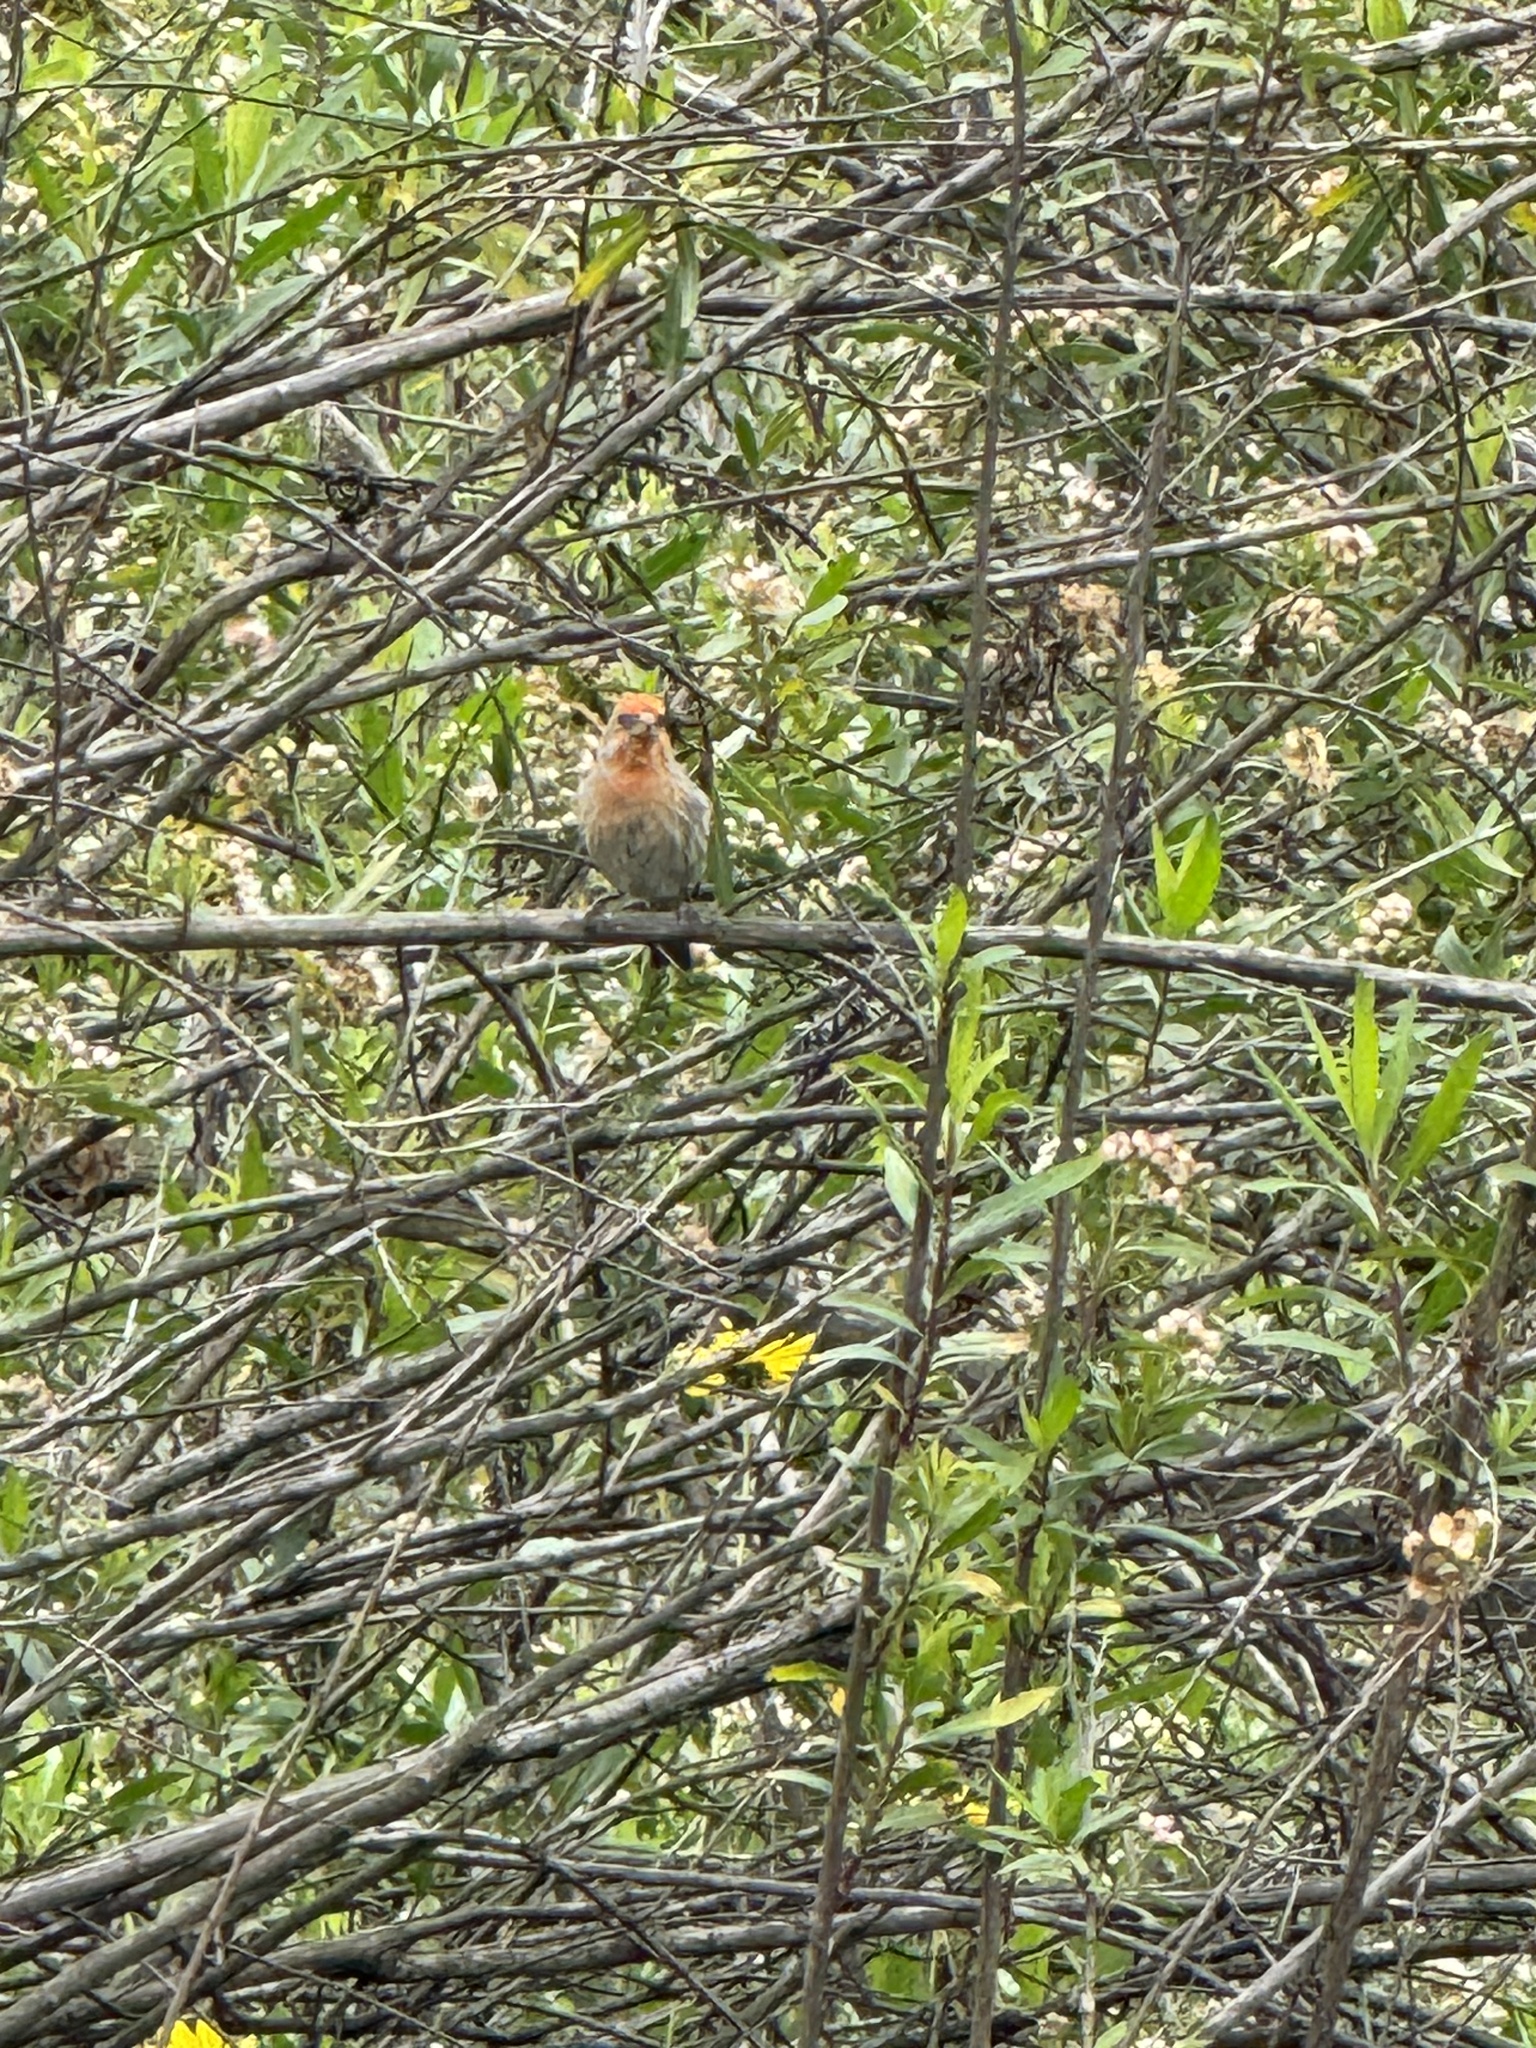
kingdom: Animalia
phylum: Chordata
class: Aves
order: Passeriformes
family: Fringillidae
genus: Haemorhous
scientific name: Haemorhous mexicanus
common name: House finch
